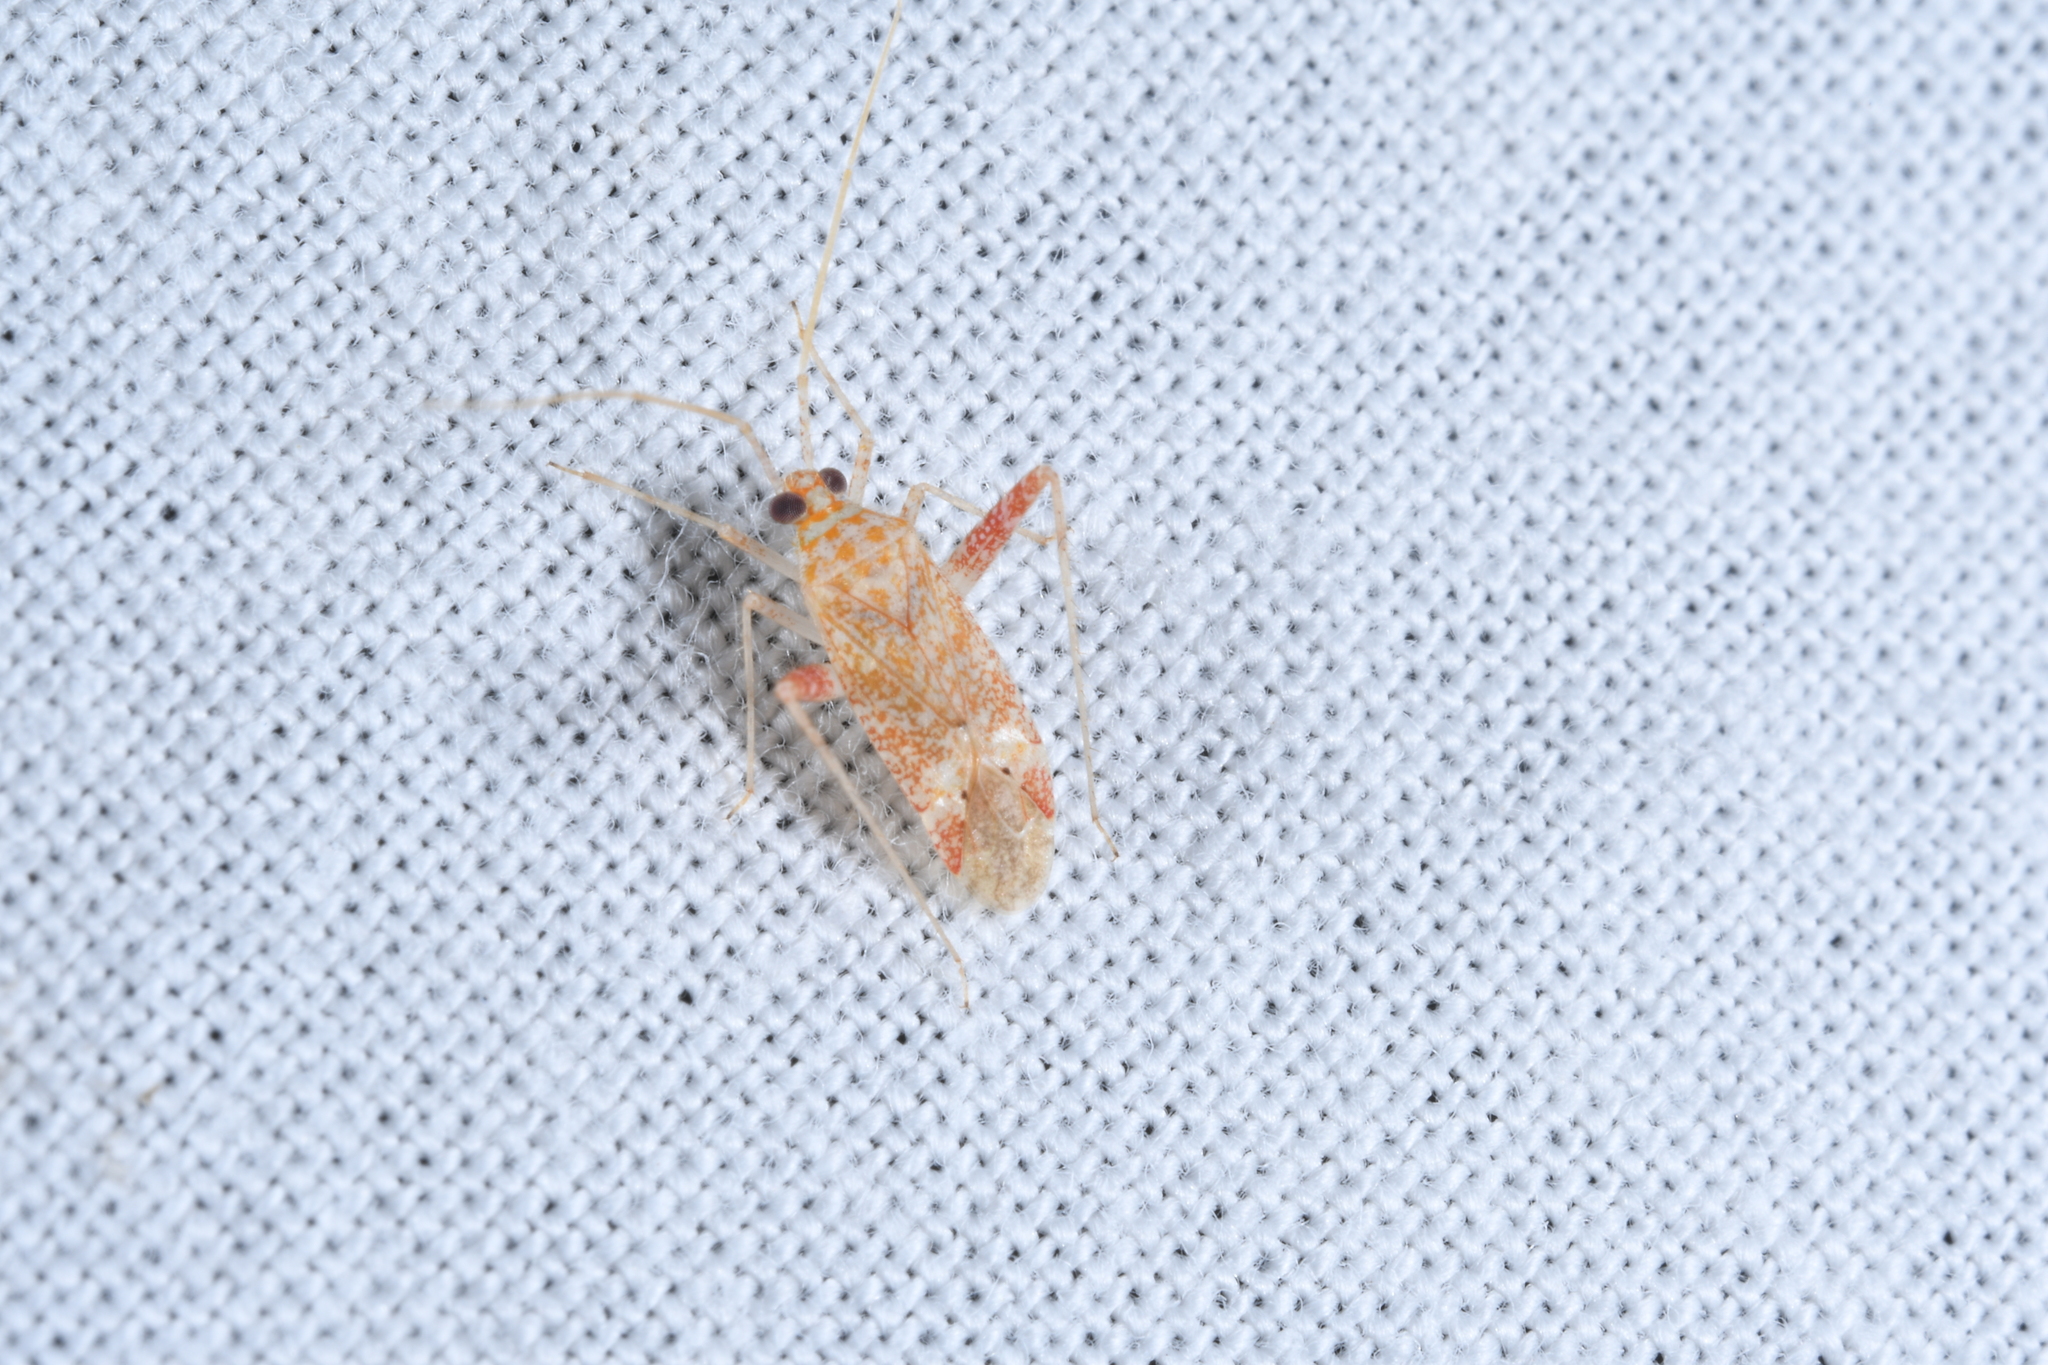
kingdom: Animalia
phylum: Arthropoda
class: Insecta
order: Hemiptera
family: Miridae
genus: Phytocoris
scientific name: Phytocoris meridionalis
